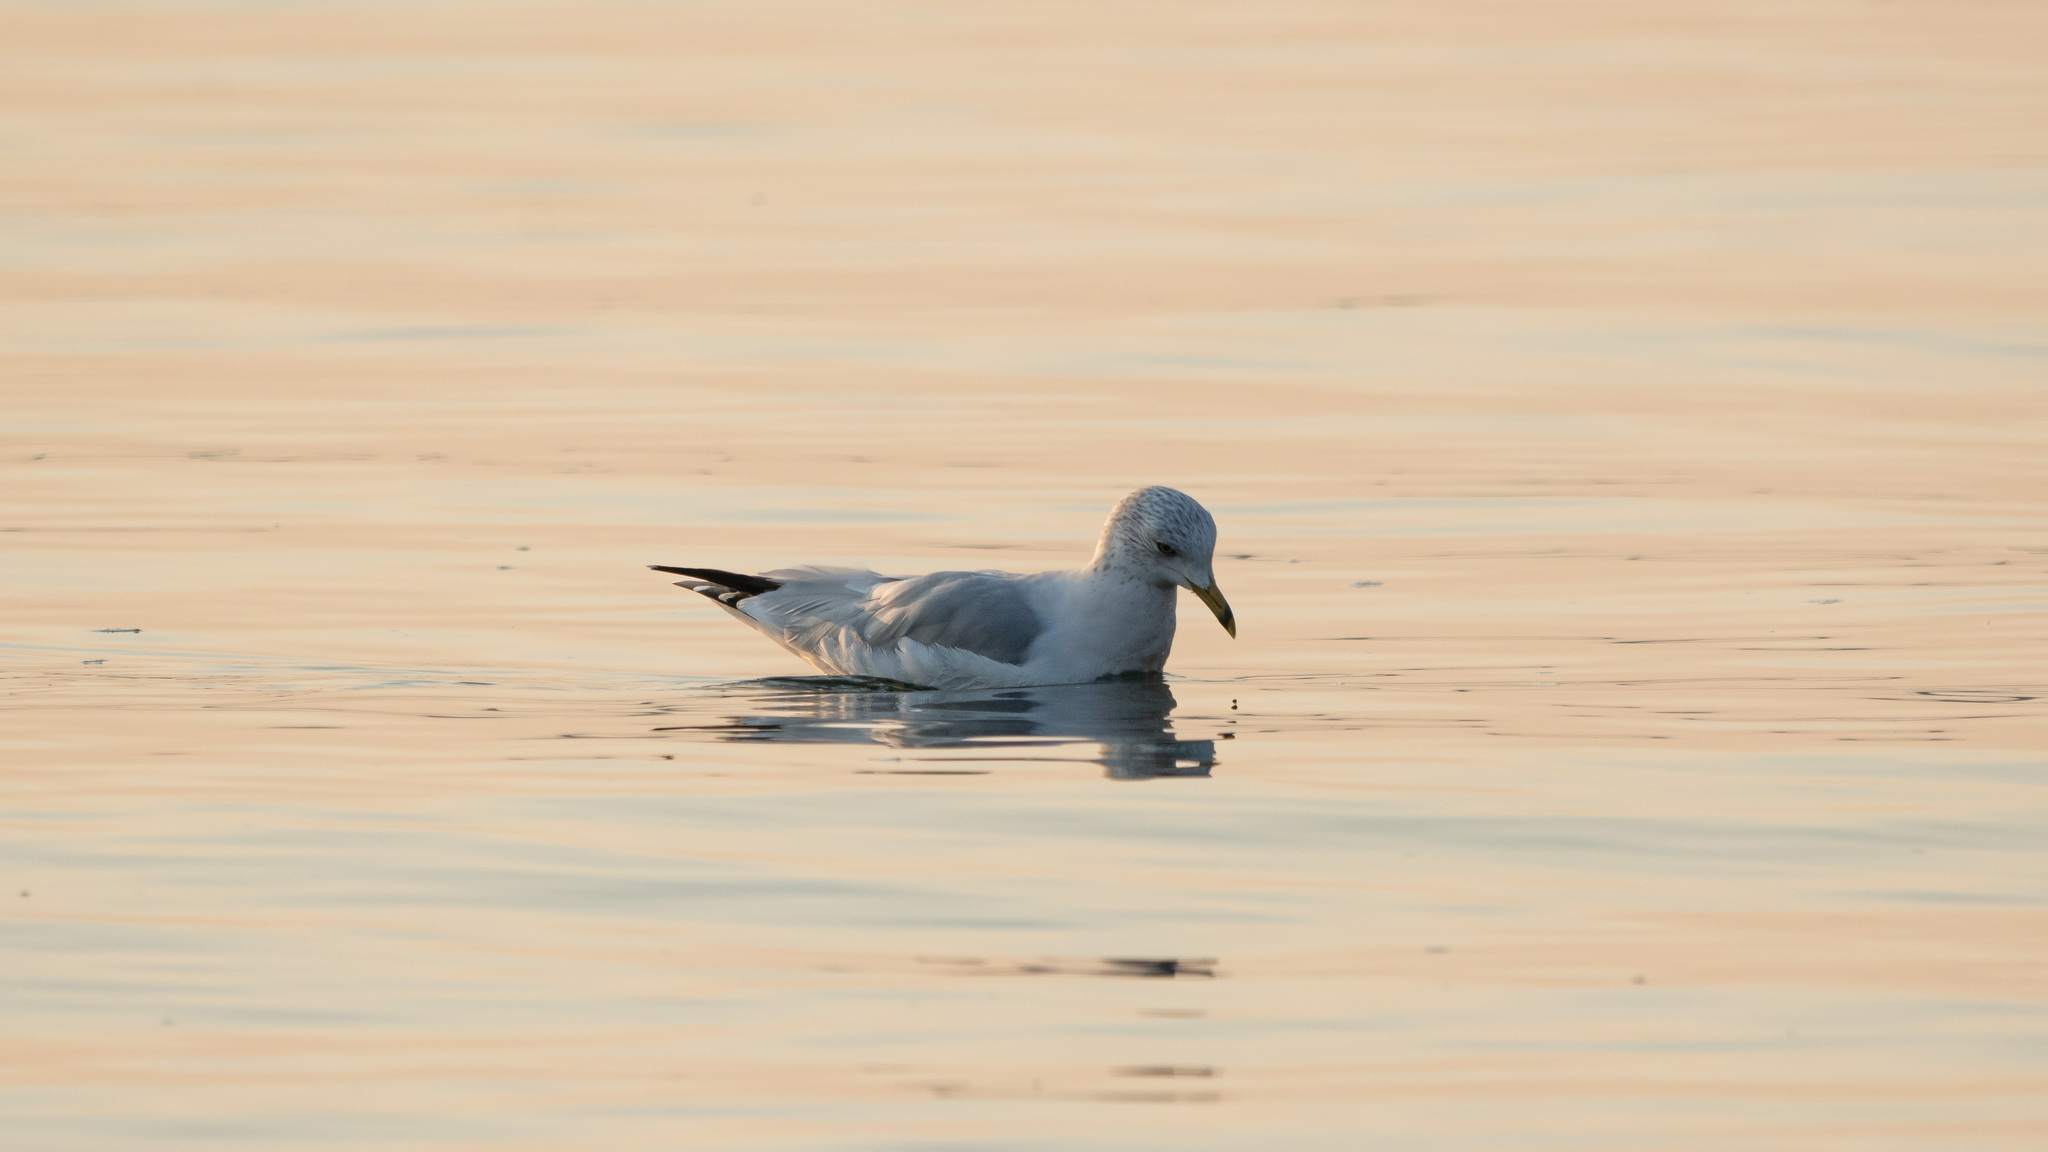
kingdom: Animalia
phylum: Chordata
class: Aves
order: Charadriiformes
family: Laridae
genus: Larus
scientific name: Larus delawarensis
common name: Ring-billed gull
